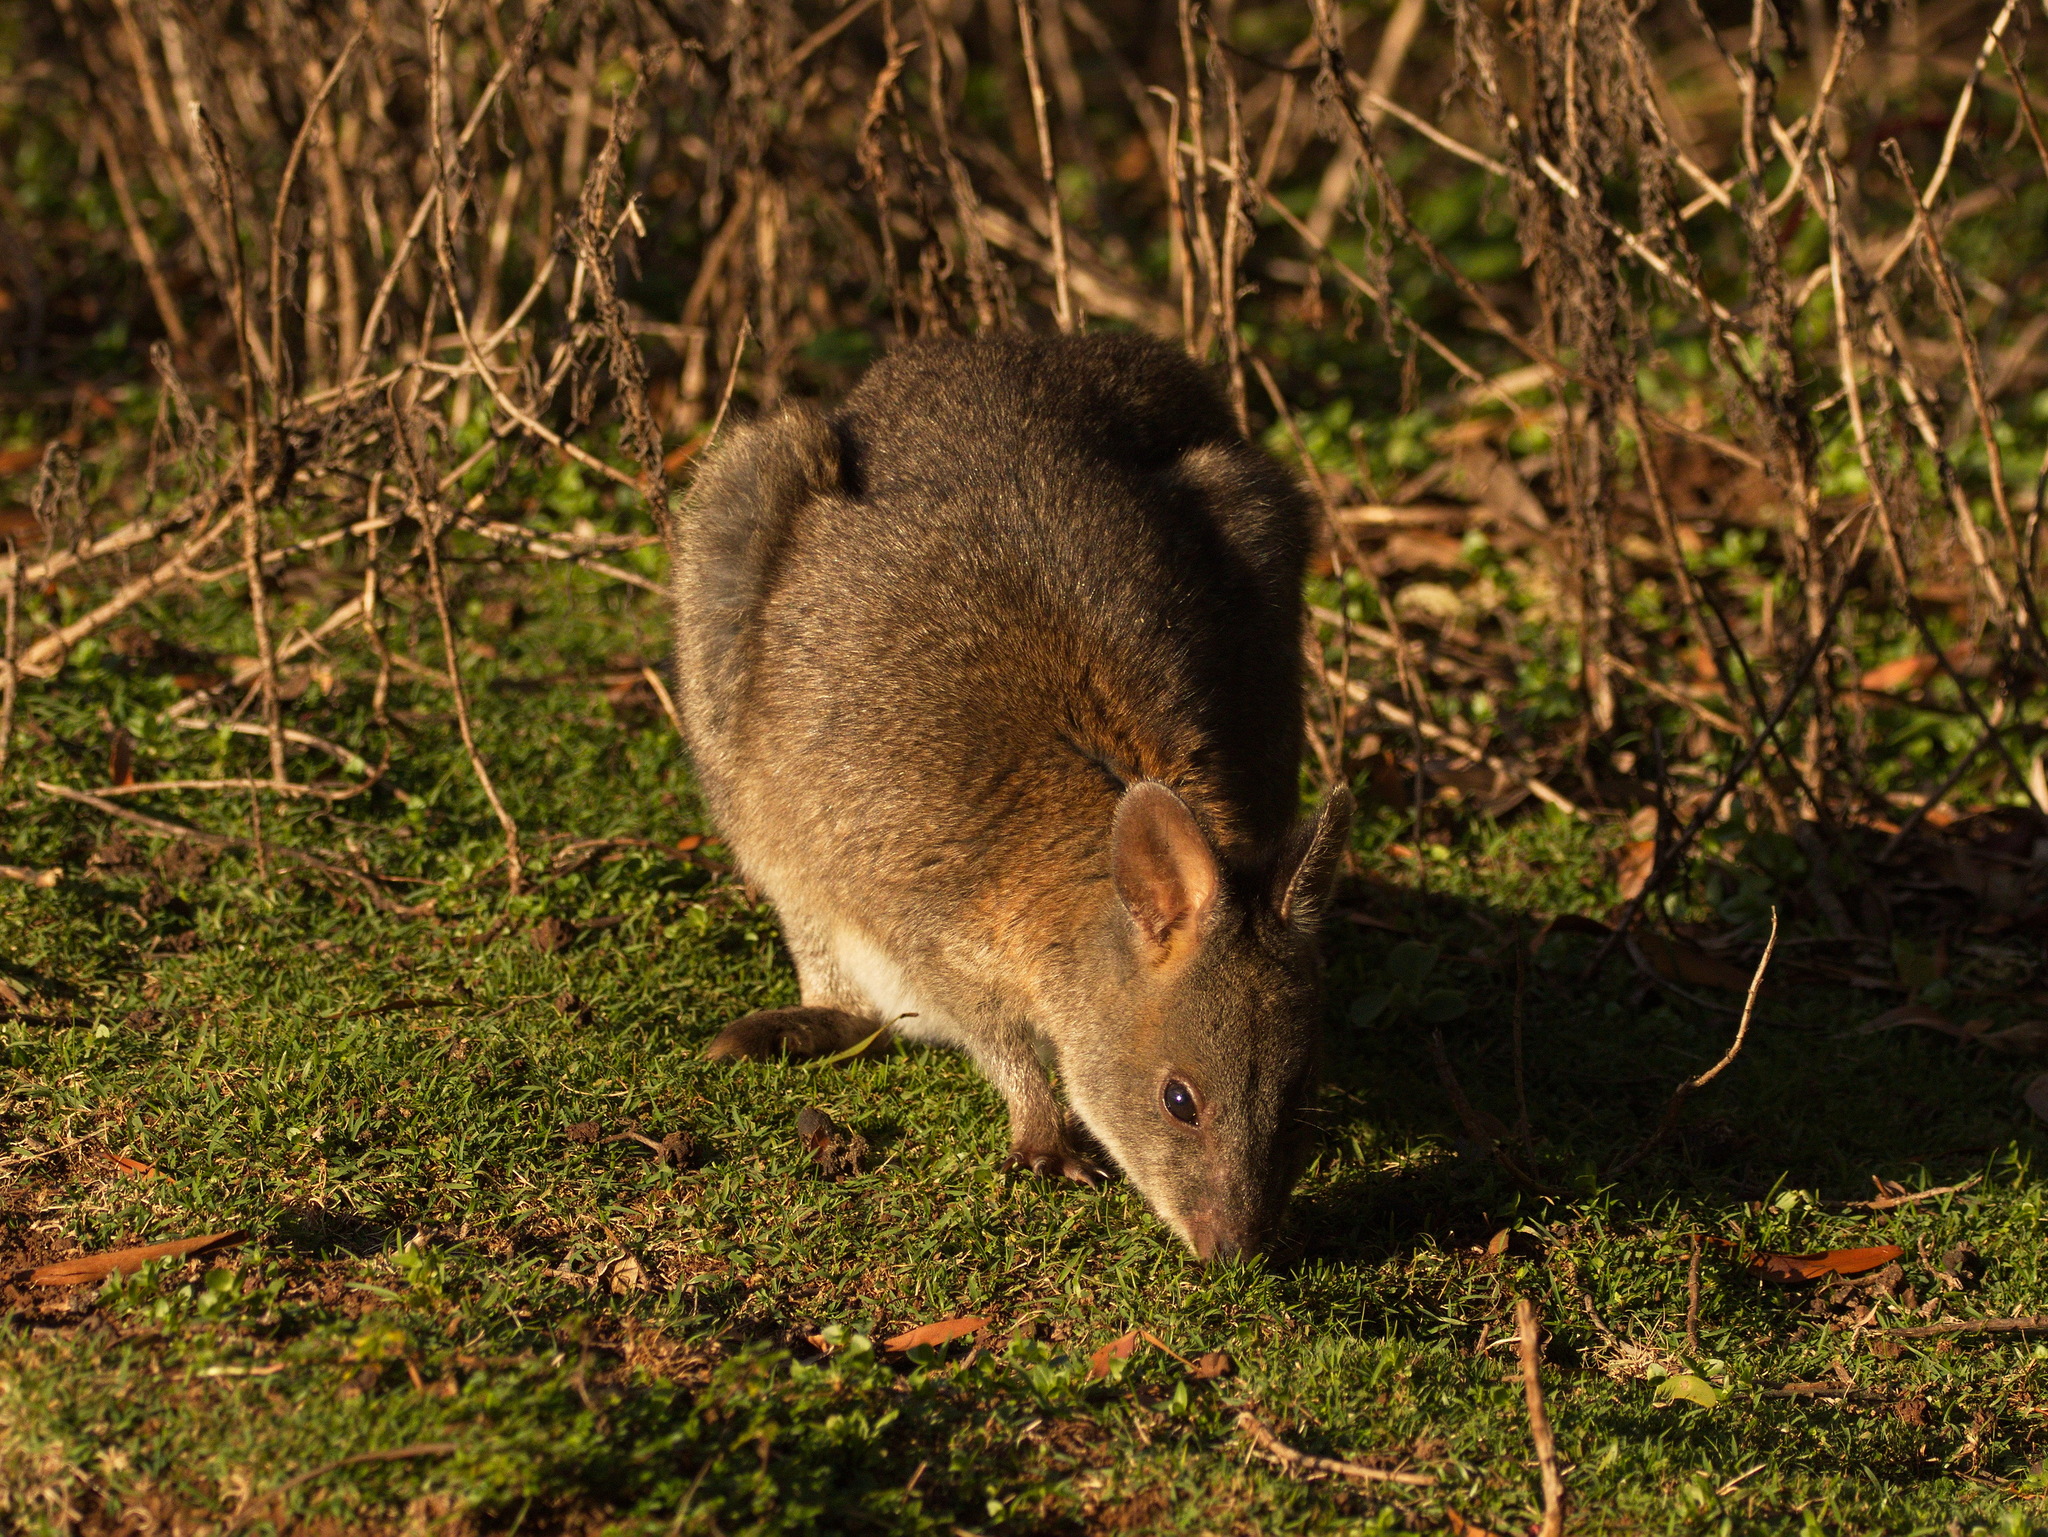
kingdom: Animalia
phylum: Chordata
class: Mammalia
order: Diprotodontia
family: Macropodidae
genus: Thylogale
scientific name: Thylogale thetis
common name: Red-necked pademelon
